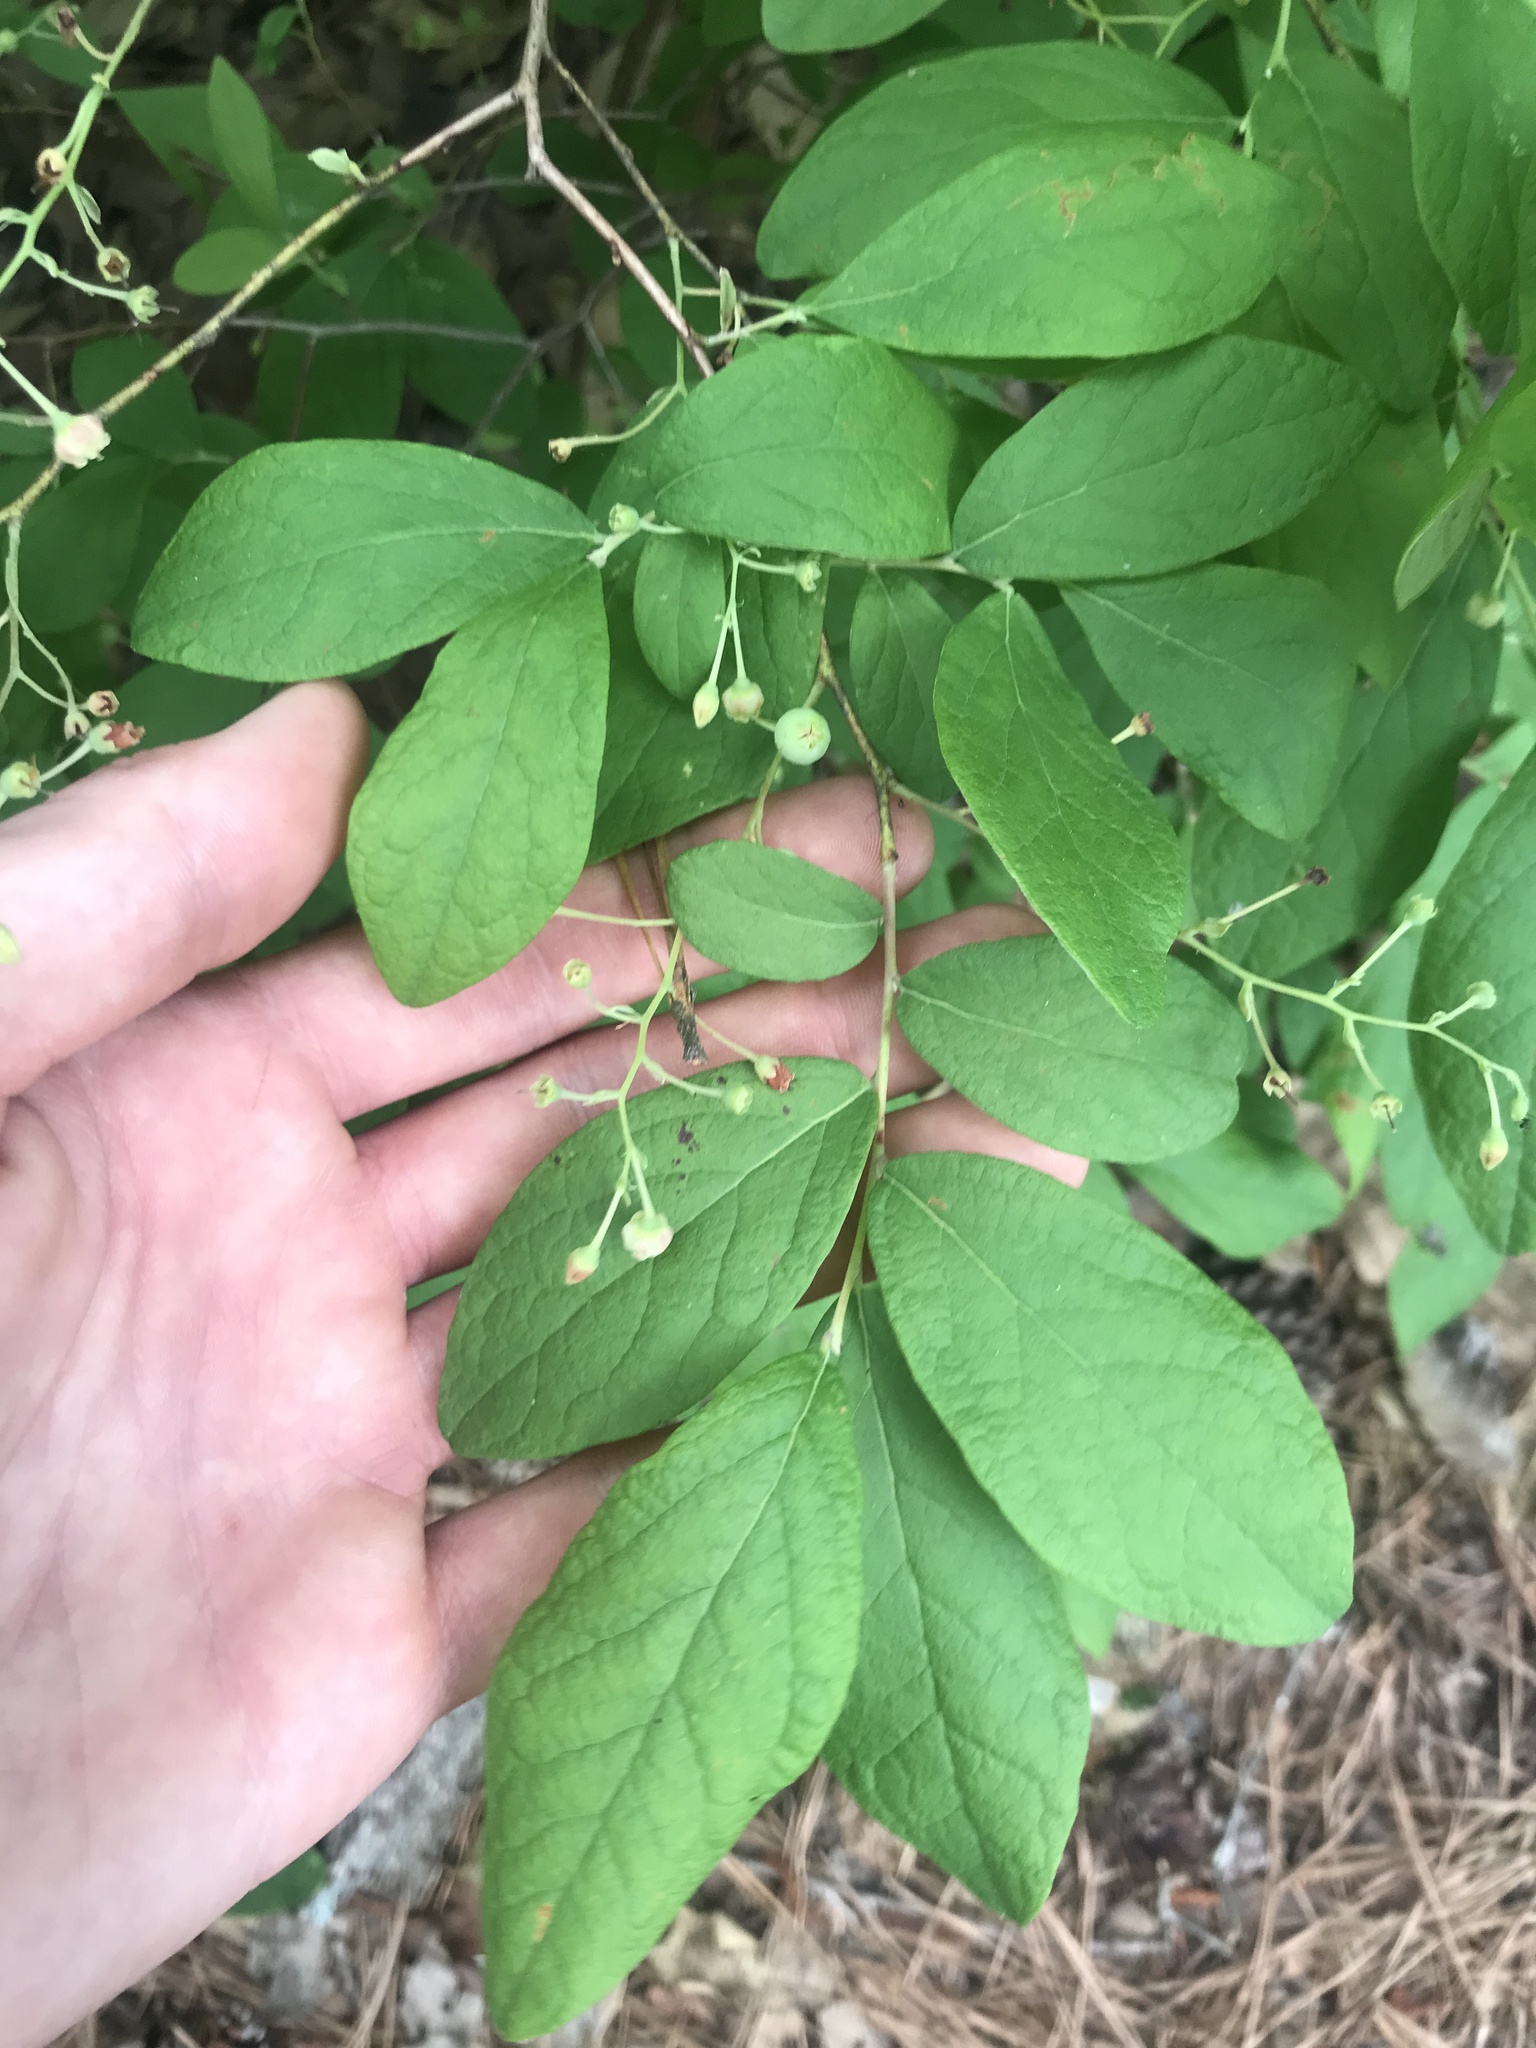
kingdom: Plantae
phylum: Tracheophyta
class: Magnoliopsida
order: Ericales
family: Ericaceae
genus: Gaylussacia
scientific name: Gaylussacia frondosa
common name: Dangleberry
